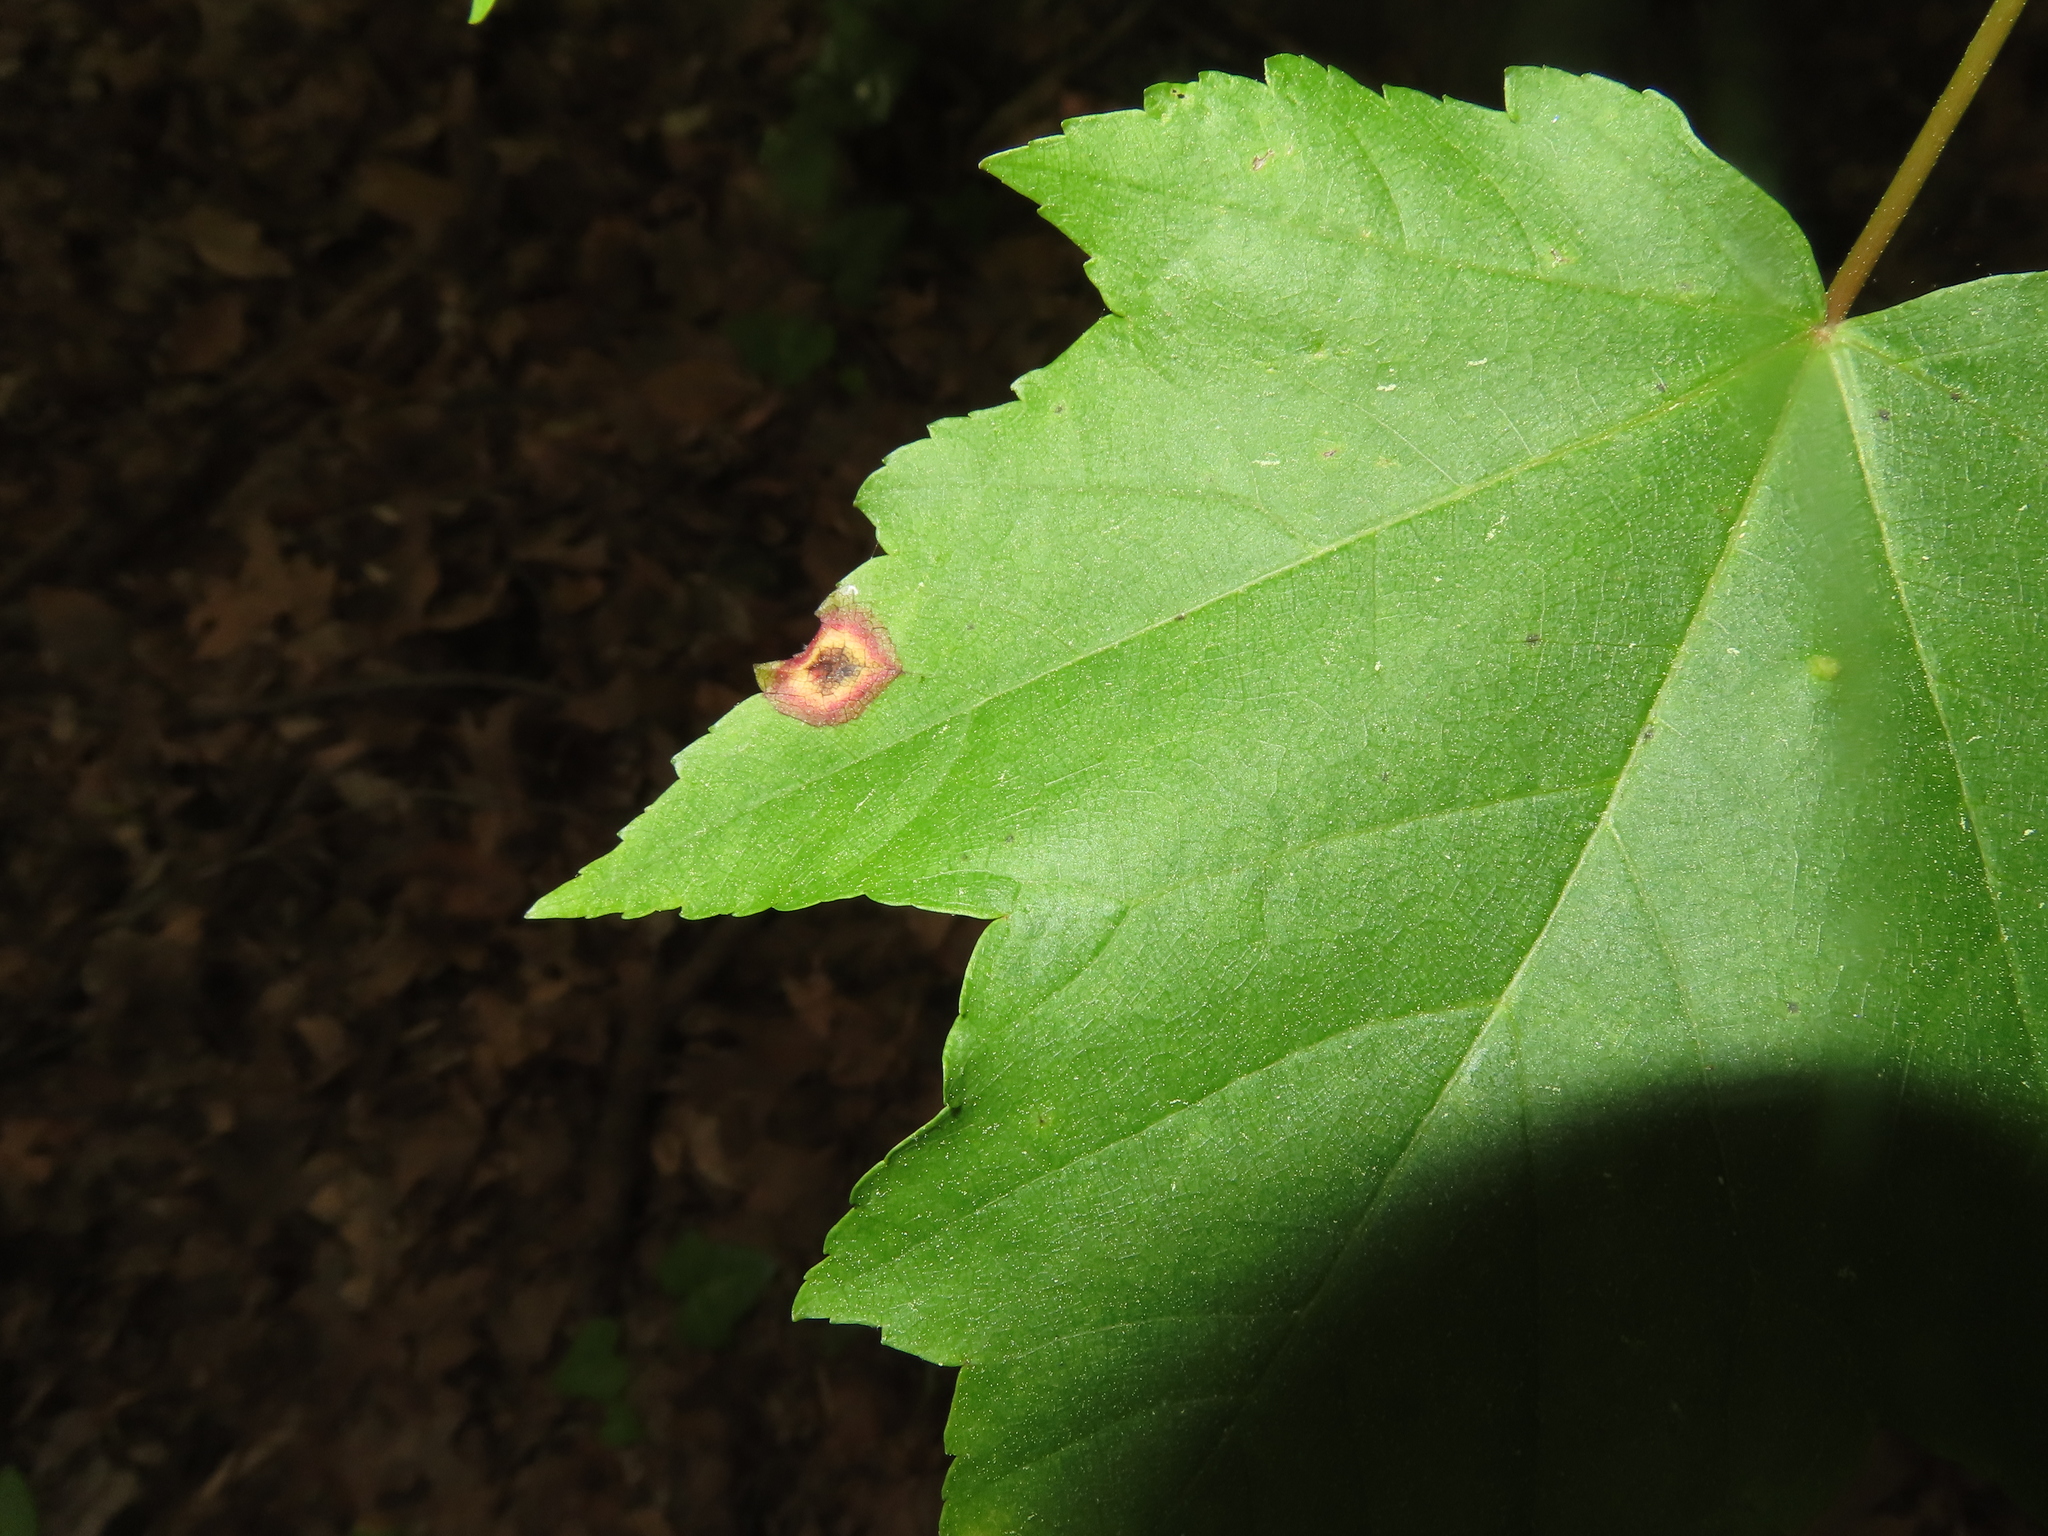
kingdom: Animalia
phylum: Arthropoda
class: Insecta
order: Diptera
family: Cecidomyiidae
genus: Acericecis
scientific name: Acericecis ocellaris
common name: Ocellate gall midge
